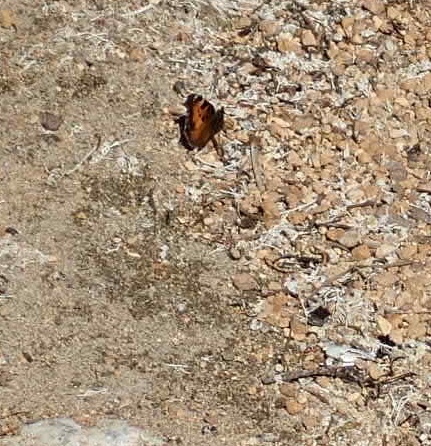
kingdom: Animalia
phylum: Arthropoda
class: Insecta
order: Lepidoptera
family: Nymphalidae
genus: Nymphalis
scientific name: Nymphalis californica
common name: California tortoiseshell
